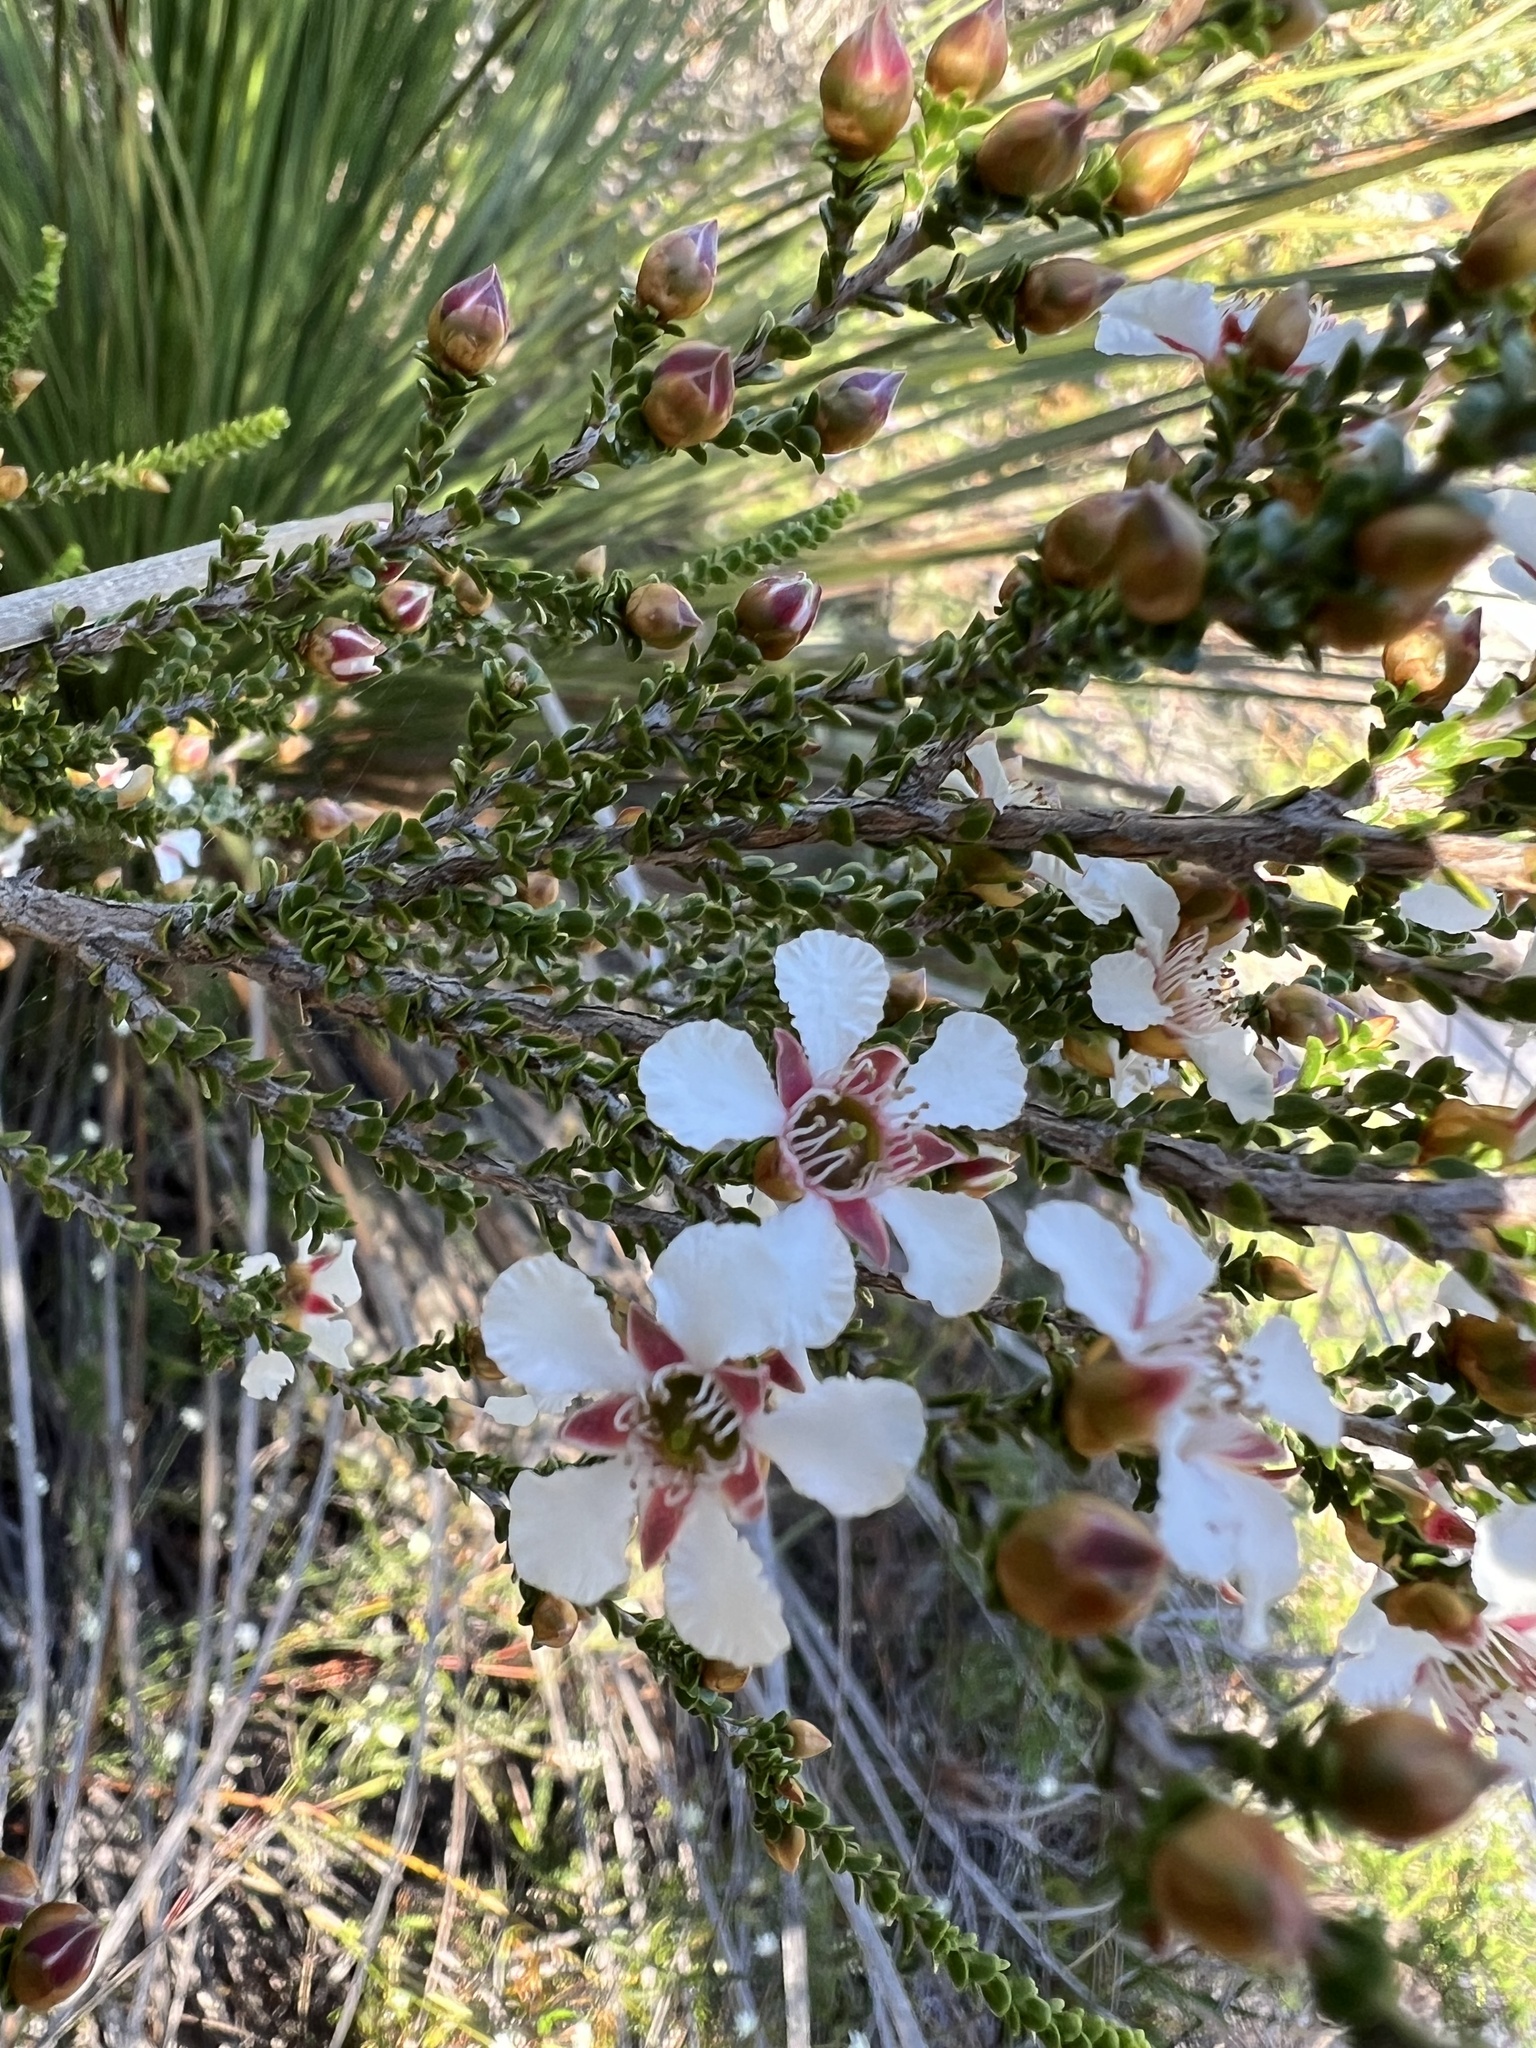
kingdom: Plantae
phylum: Tracheophyta
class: Magnoliopsida
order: Myrtales
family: Myrtaceae
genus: Leptospermum
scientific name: Leptospermum epacridoideum
